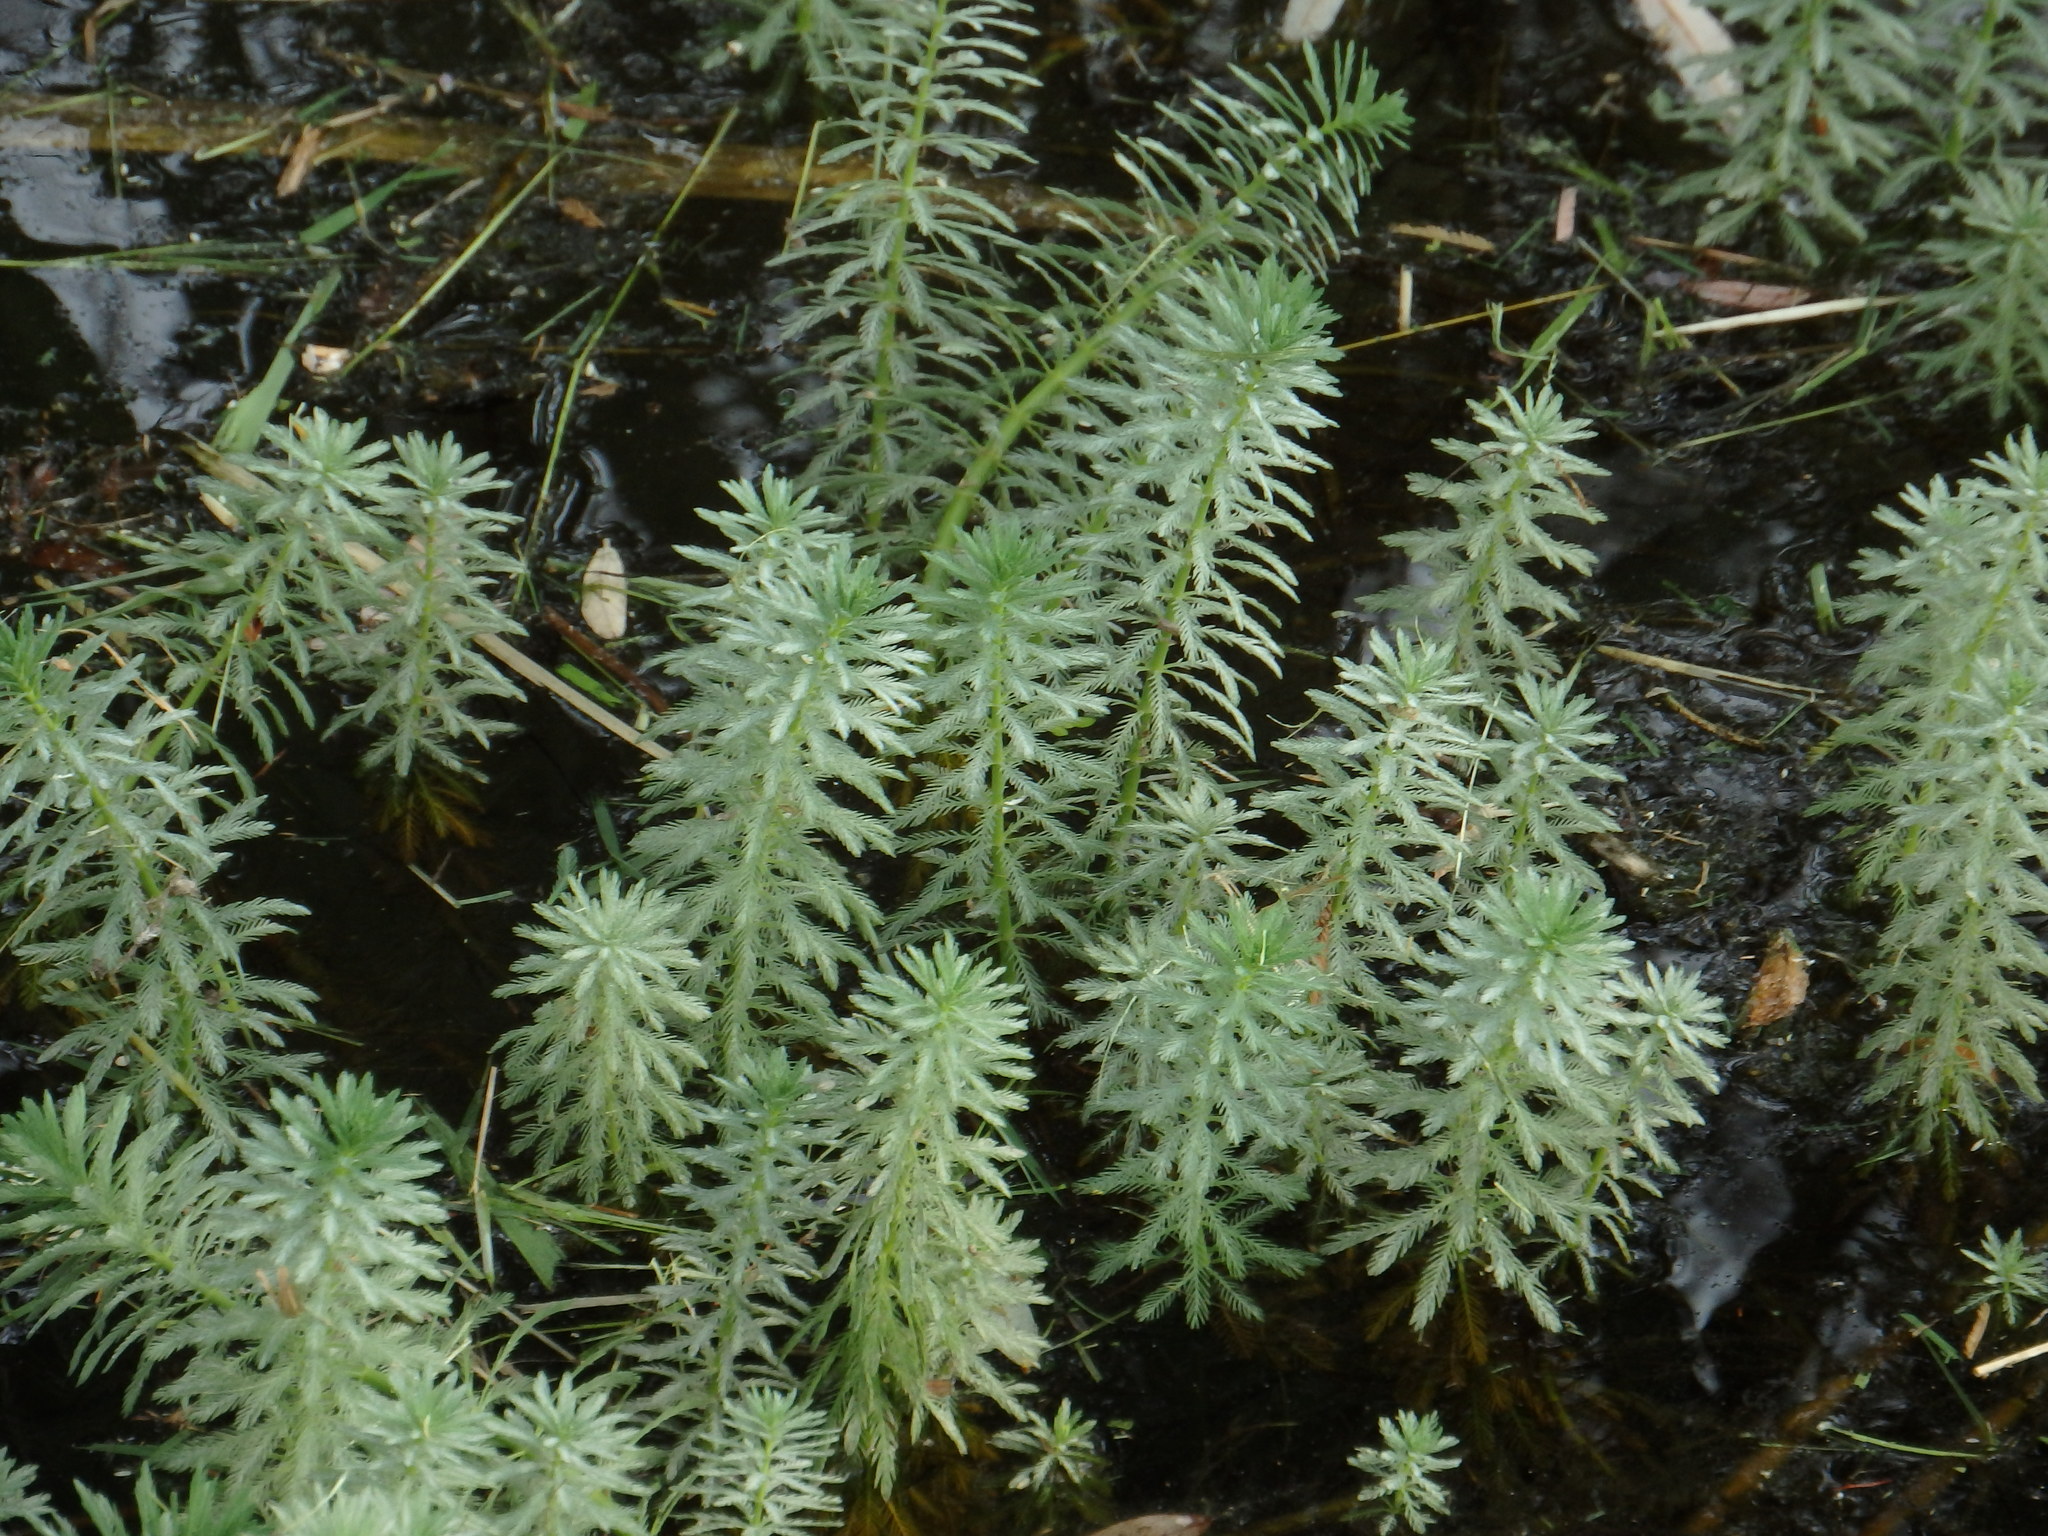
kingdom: Plantae
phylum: Tracheophyta
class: Magnoliopsida
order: Saxifragales
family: Haloragaceae
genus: Myriophyllum
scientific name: Myriophyllum aquaticum
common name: Parrot's feather
